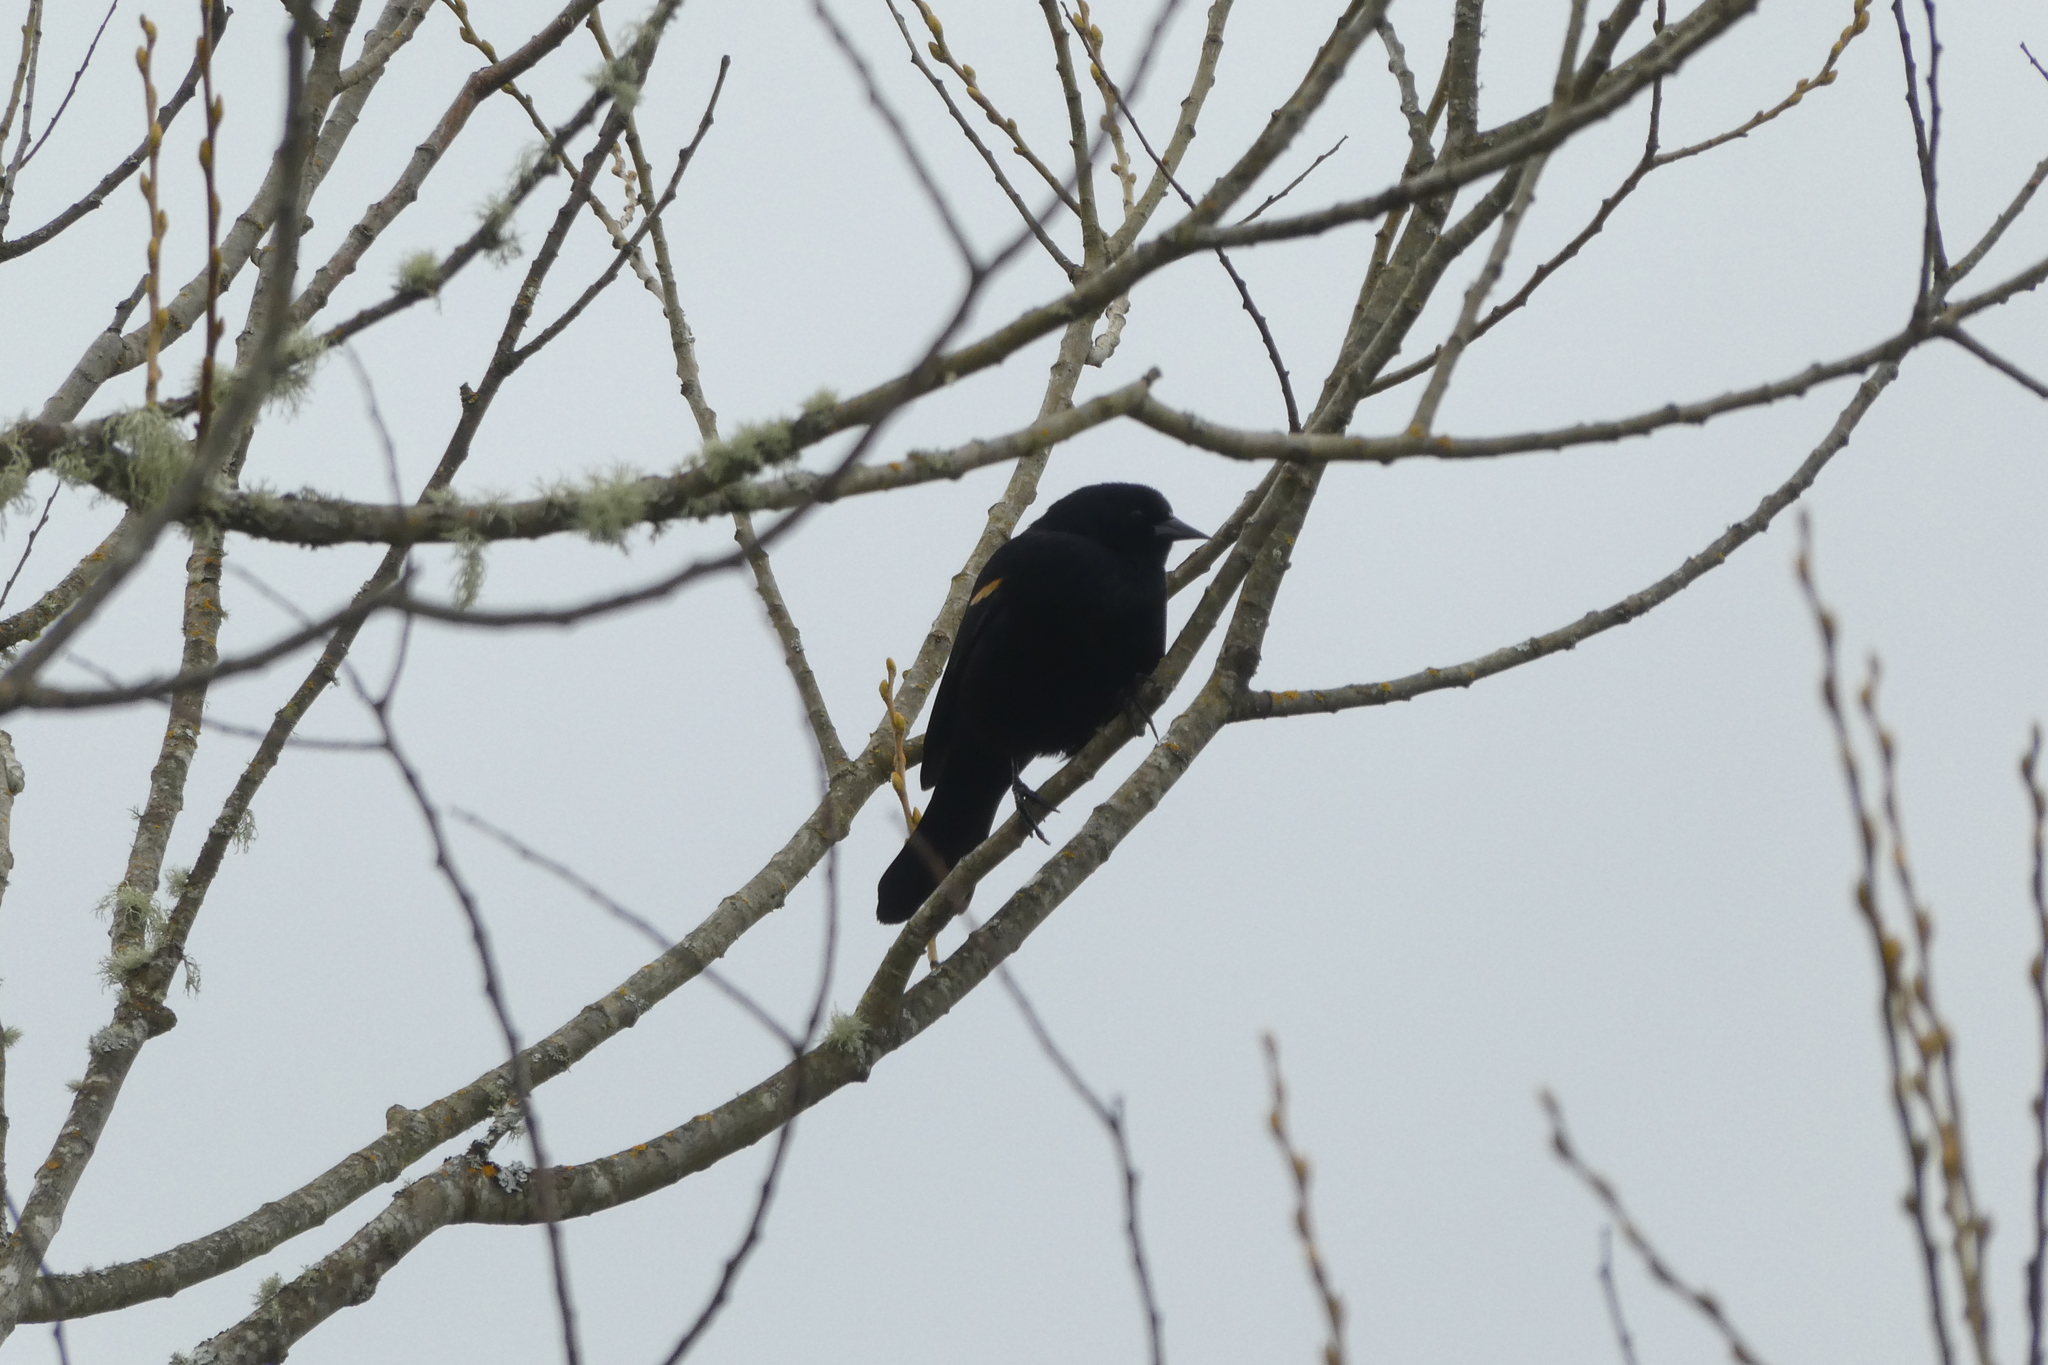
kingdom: Animalia
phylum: Chordata
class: Aves
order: Passeriformes
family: Icteridae
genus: Agelaius
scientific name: Agelaius phoeniceus
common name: Red-winged blackbird
